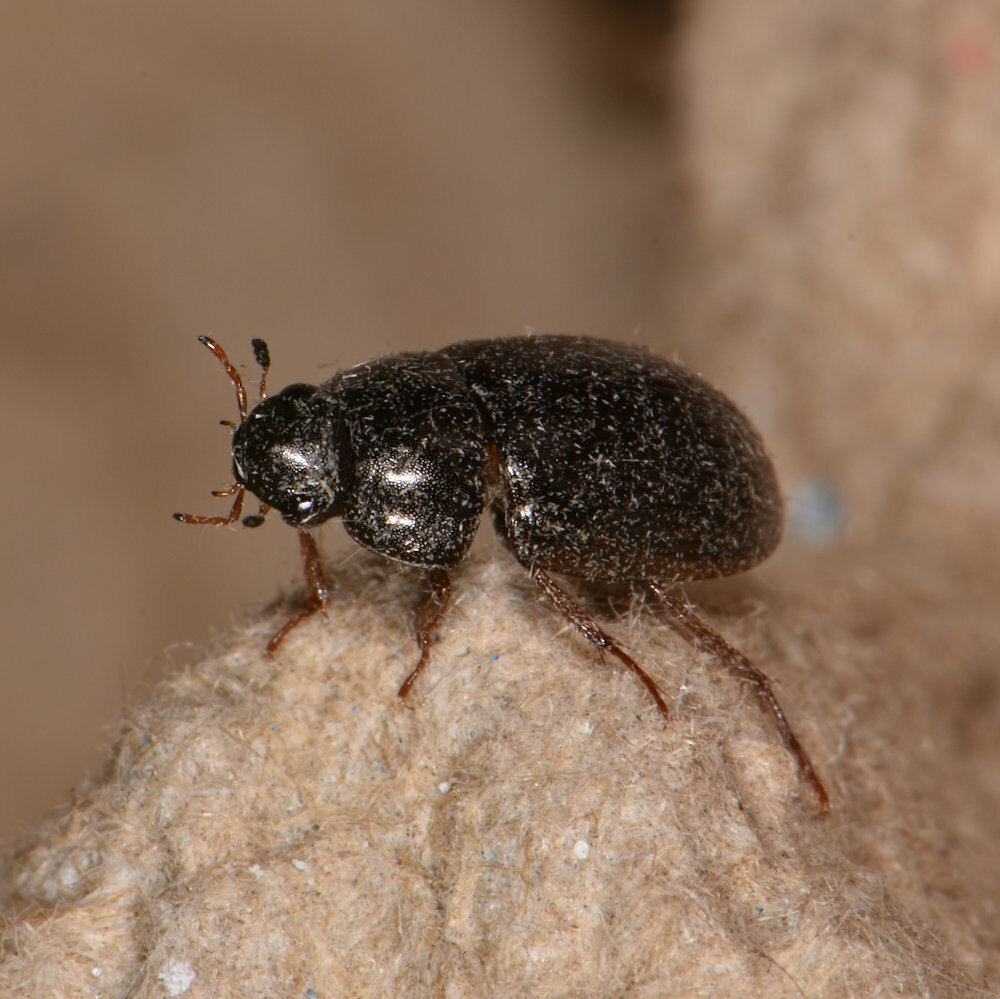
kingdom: Animalia
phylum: Arthropoda
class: Insecta
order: Coleoptera
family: Hydrophilidae
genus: Hydrobius
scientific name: Hydrobius fuscipes
